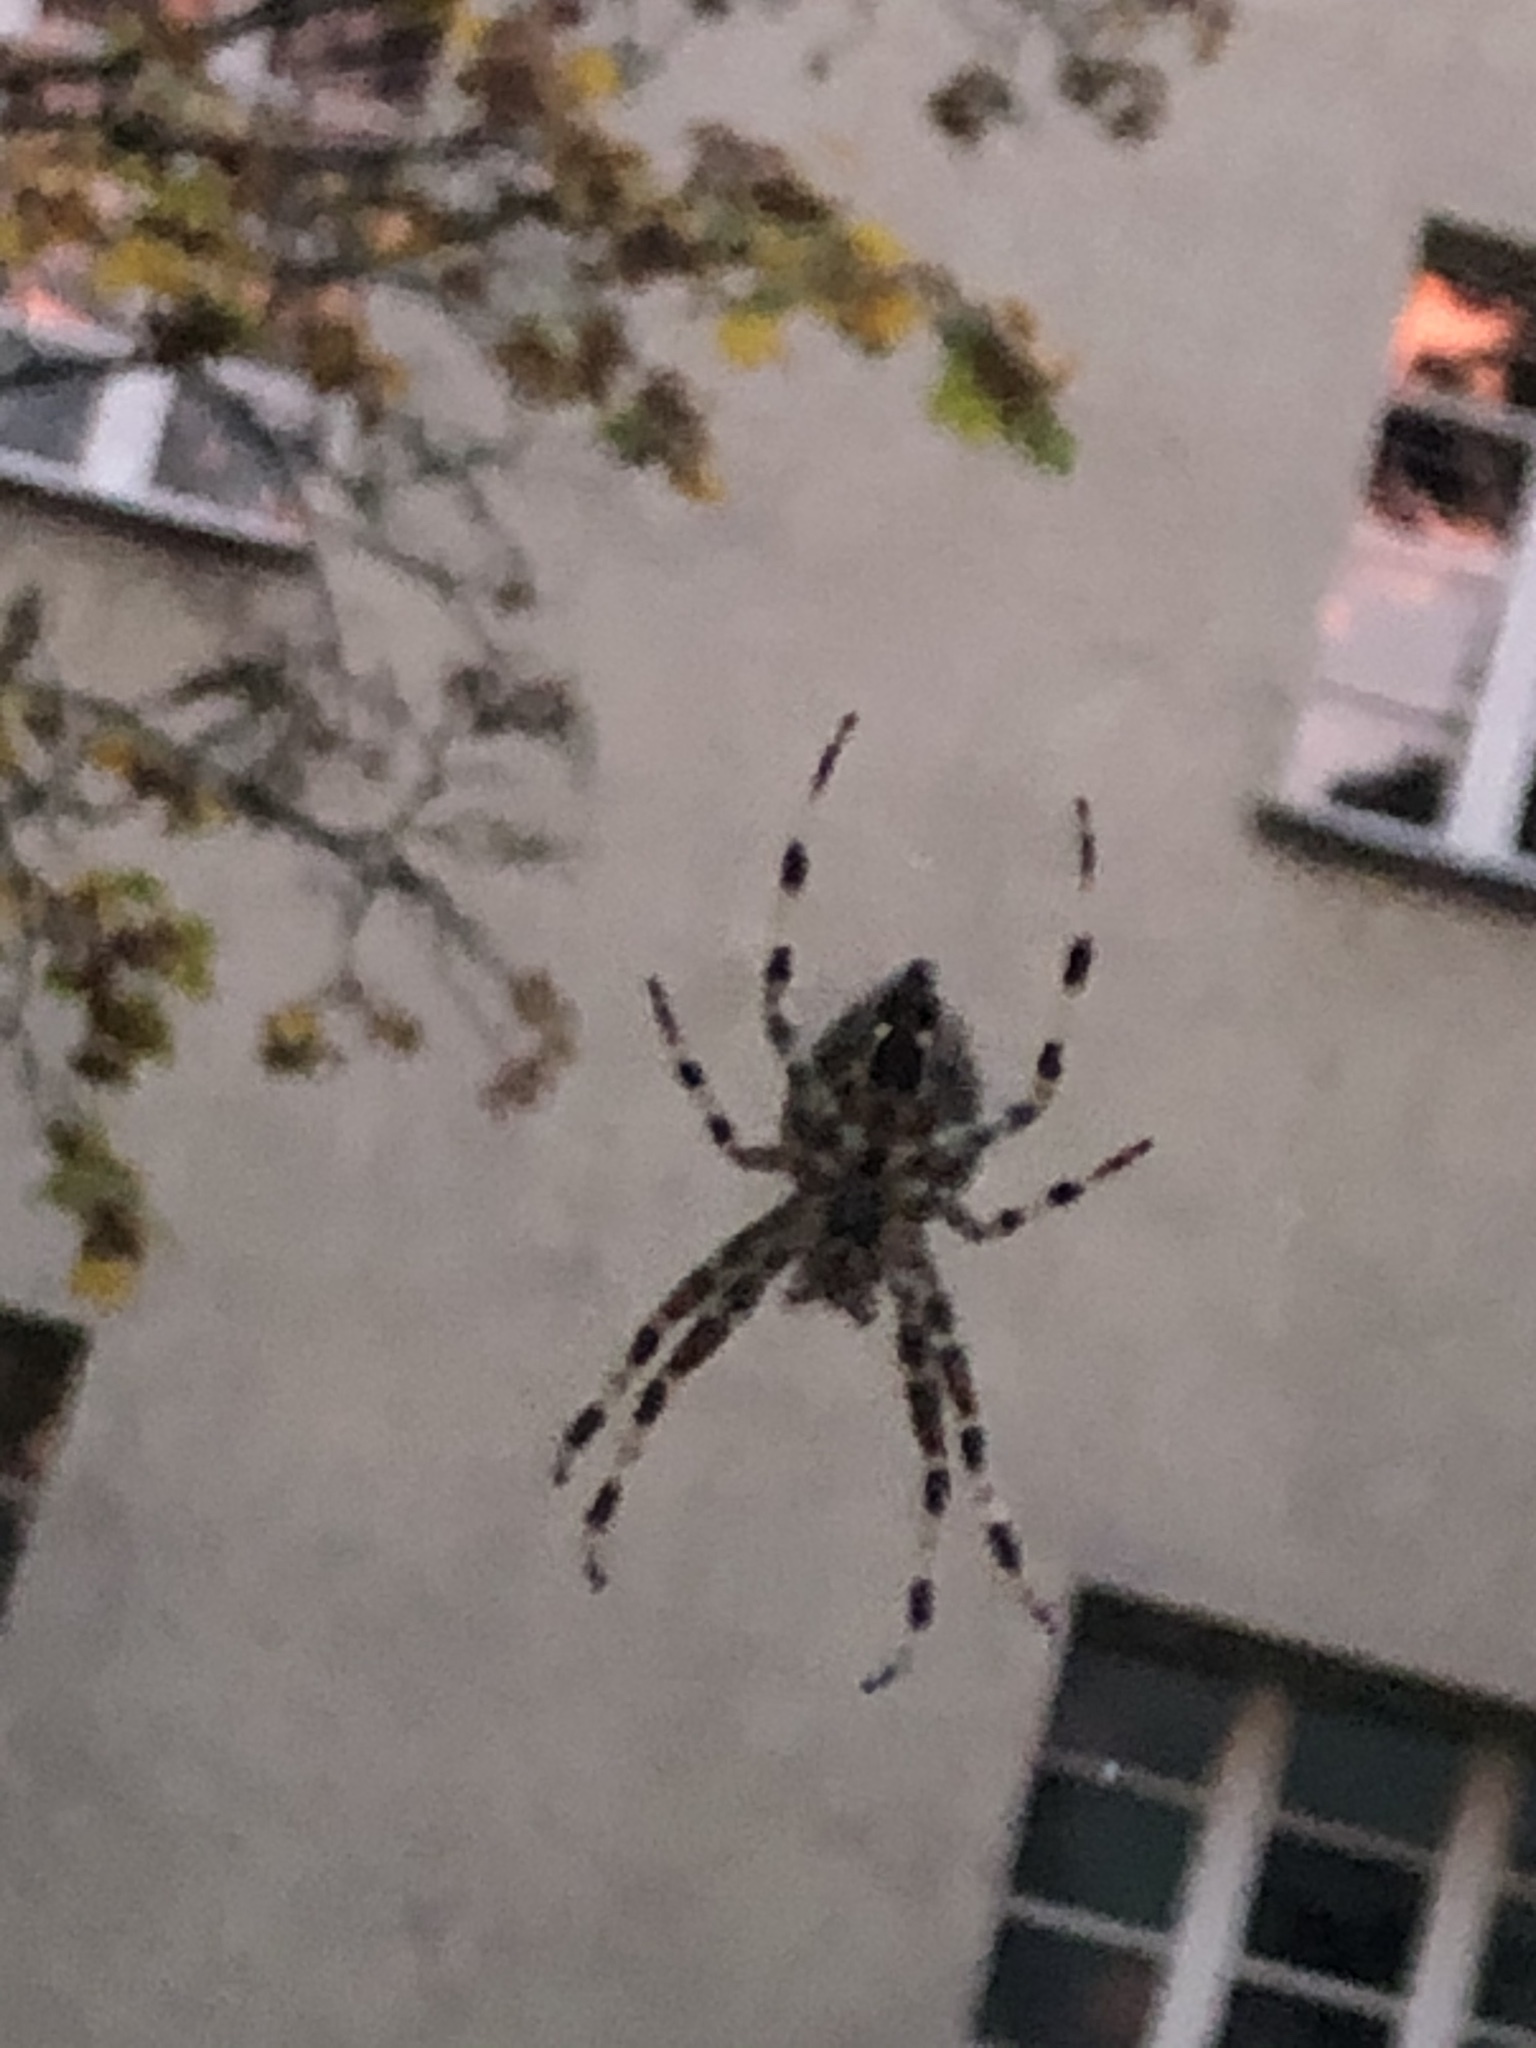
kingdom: Animalia
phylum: Arthropoda
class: Arachnida
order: Araneae
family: Araneidae
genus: Araneus
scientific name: Araneus diadematus
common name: Cross orbweaver
